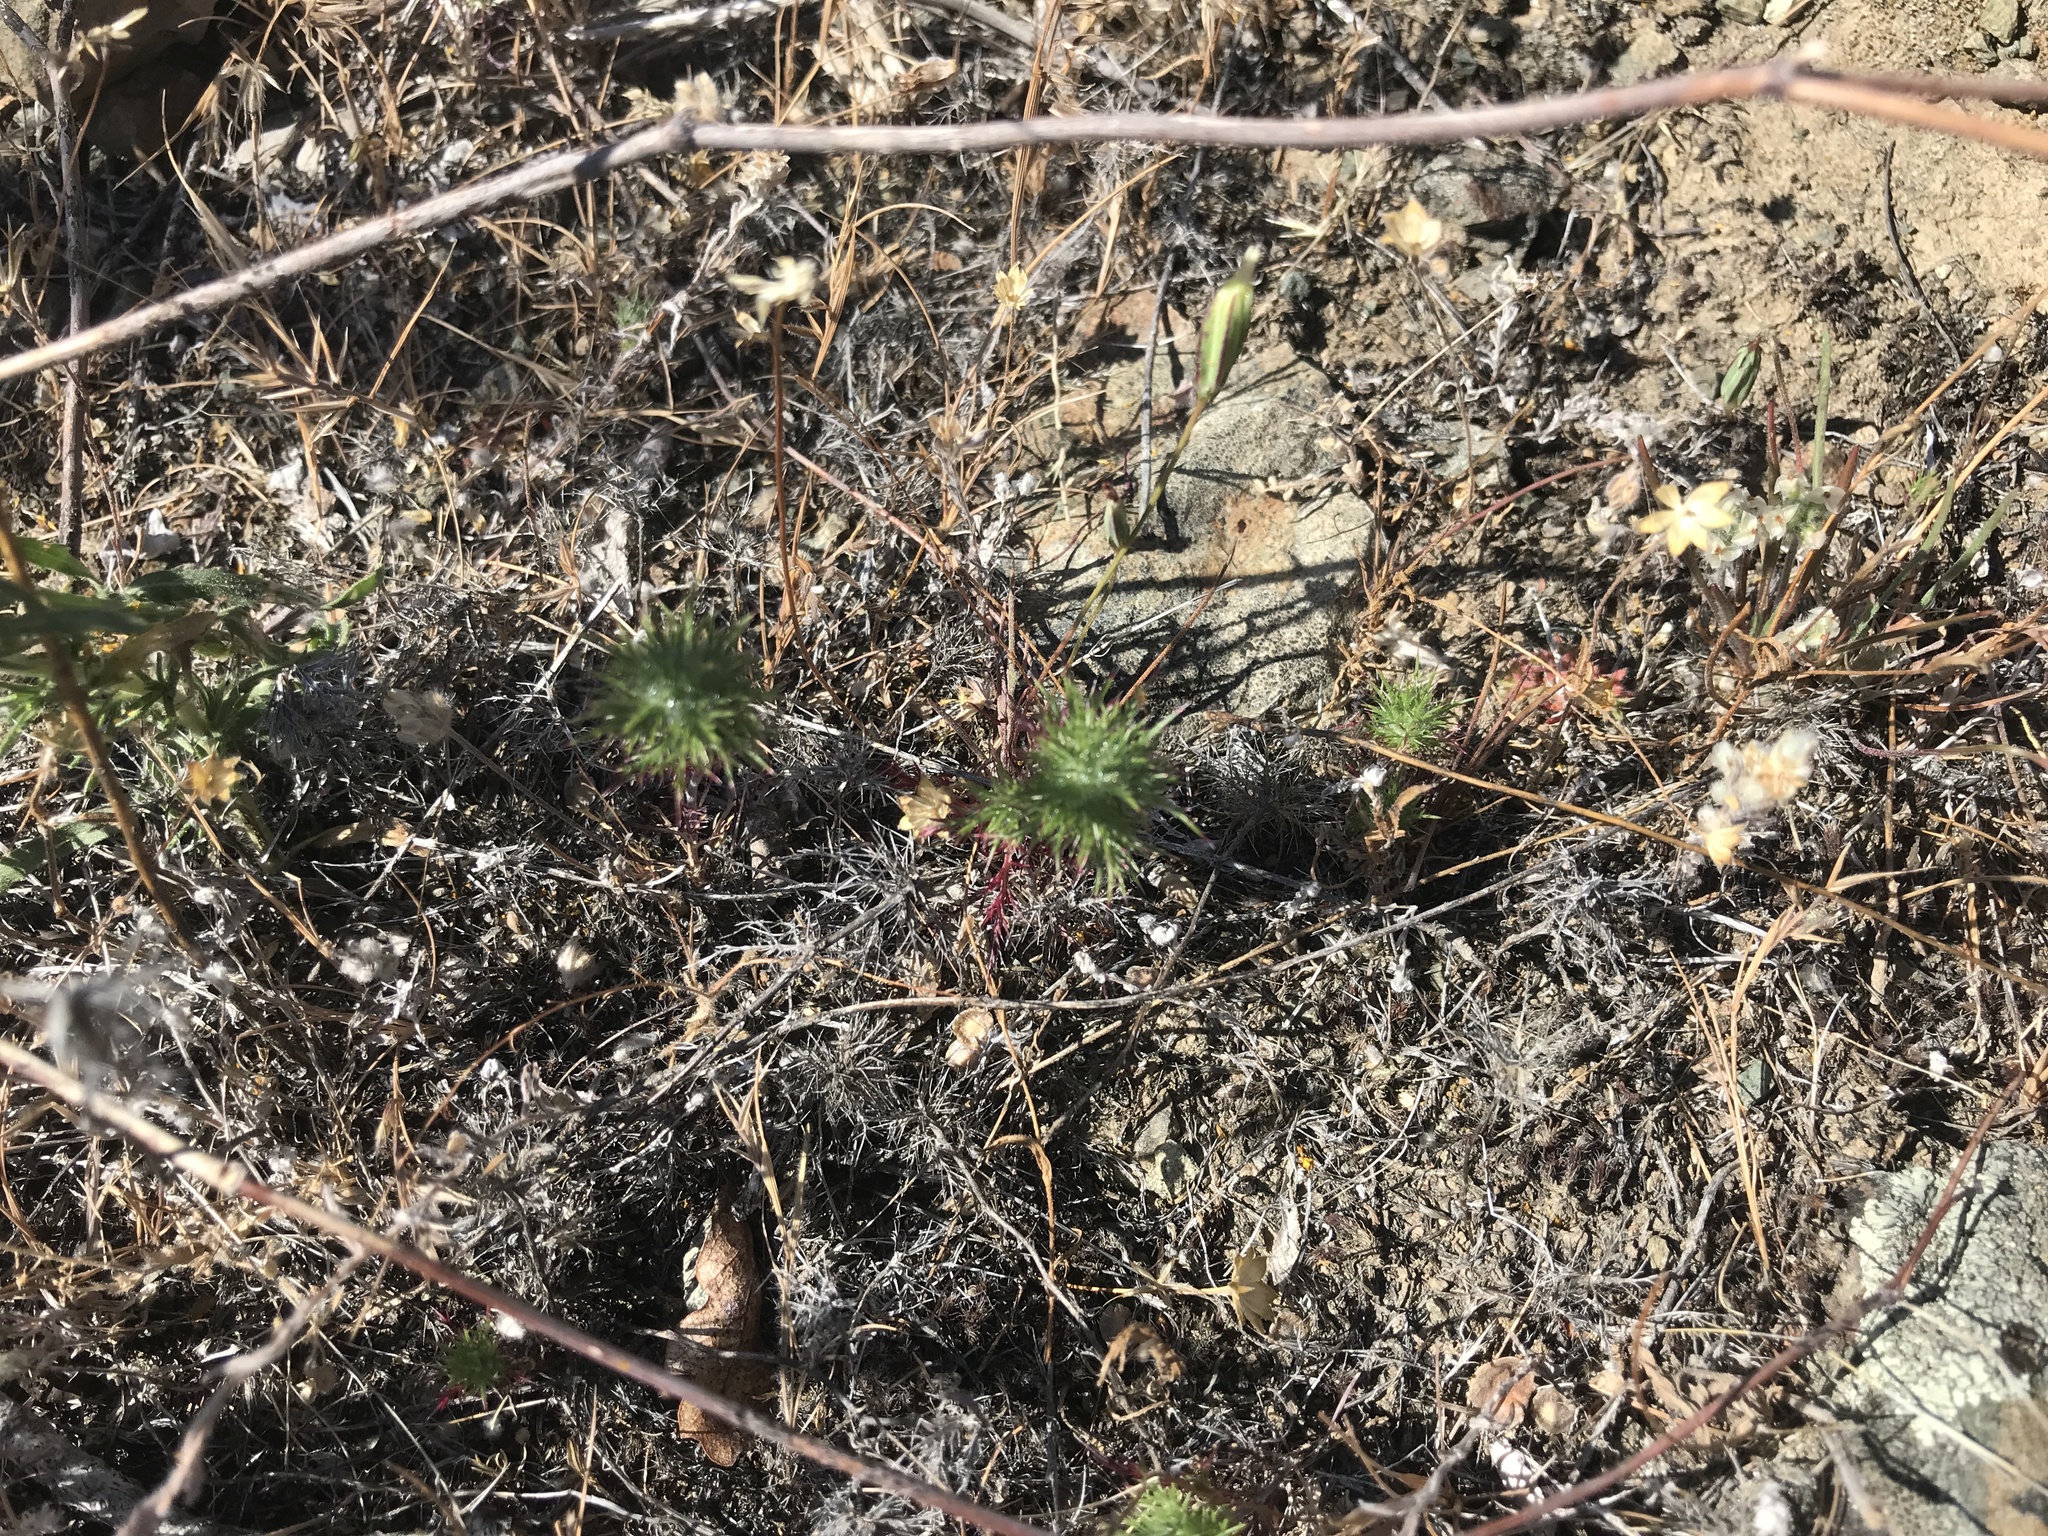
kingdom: Plantae
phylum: Tracheophyta
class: Magnoliopsida
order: Ericales
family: Polemoniaceae
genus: Navarretia
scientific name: Navarretia jepsonii
